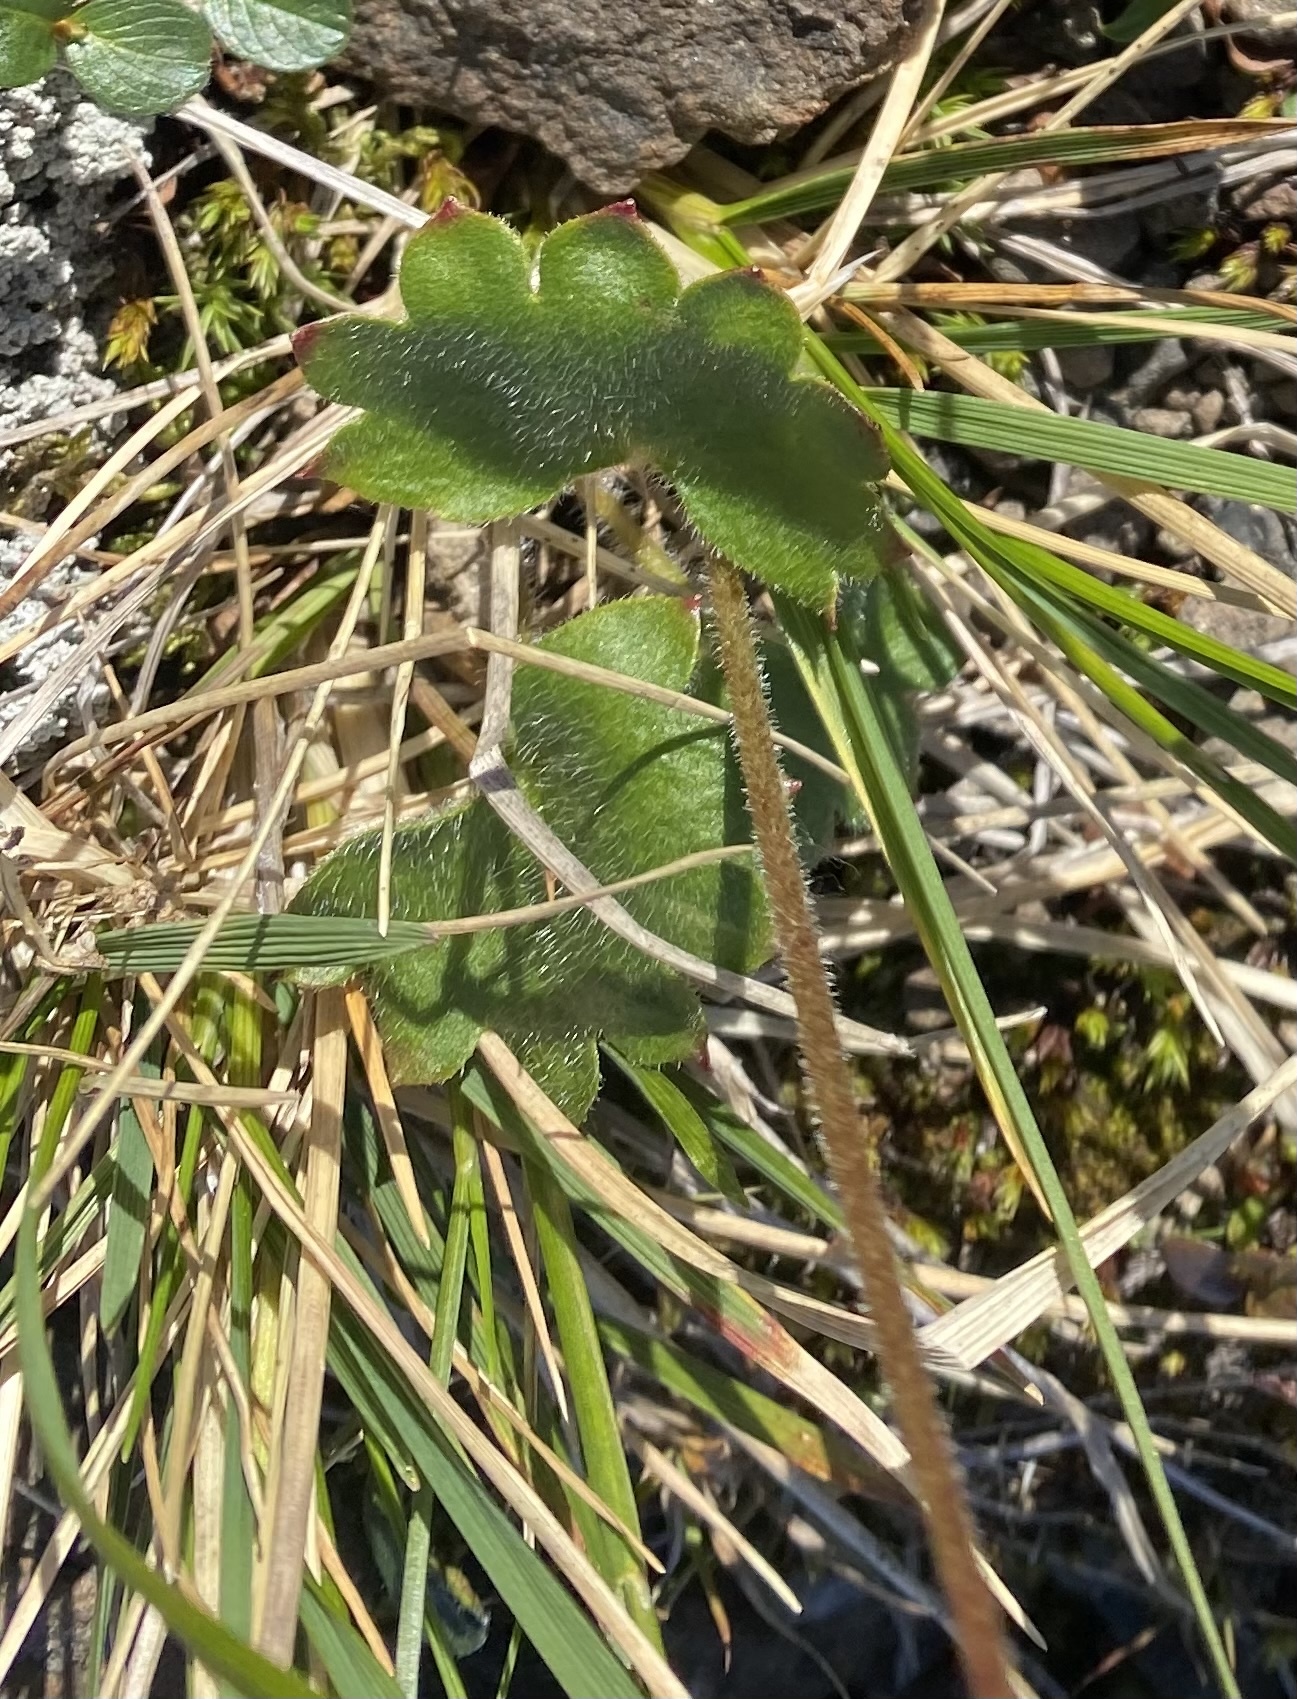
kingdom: Plantae
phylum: Tracheophyta
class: Magnoliopsida
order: Saxifragales
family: Saxifragaceae
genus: Micranthes
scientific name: Micranthes nelsoniana
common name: Nelson's saxifrage
